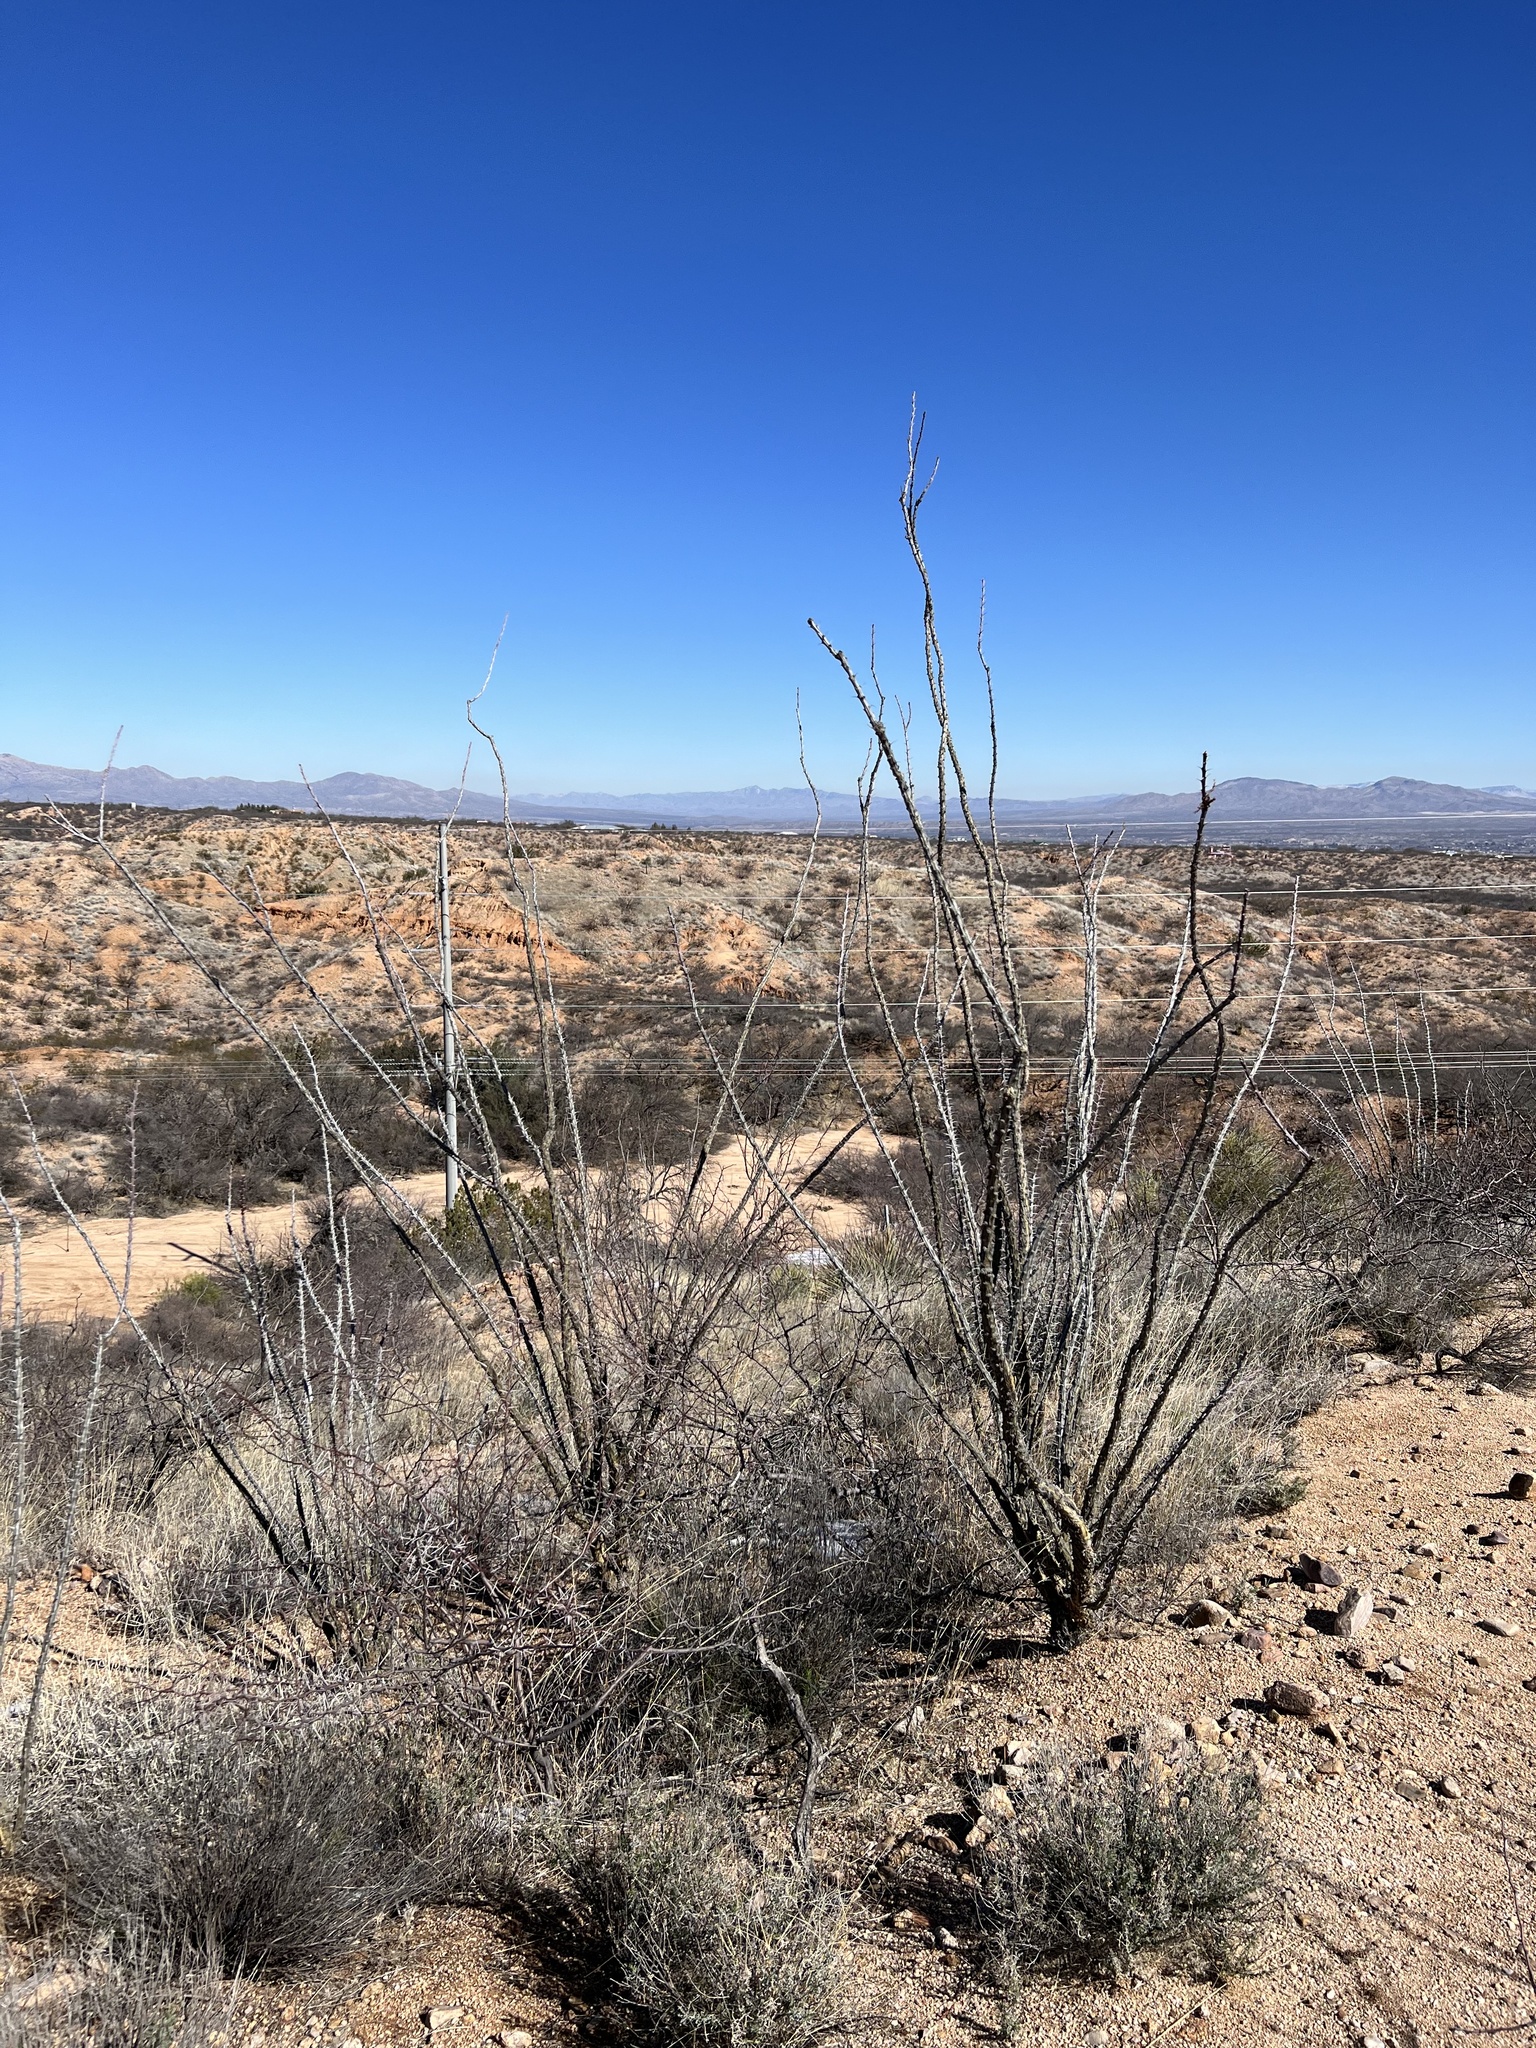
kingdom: Plantae
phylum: Tracheophyta
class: Magnoliopsida
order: Ericales
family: Fouquieriaceae
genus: Fouquieria
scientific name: Fouquieria splendens
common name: Vine-cactus
